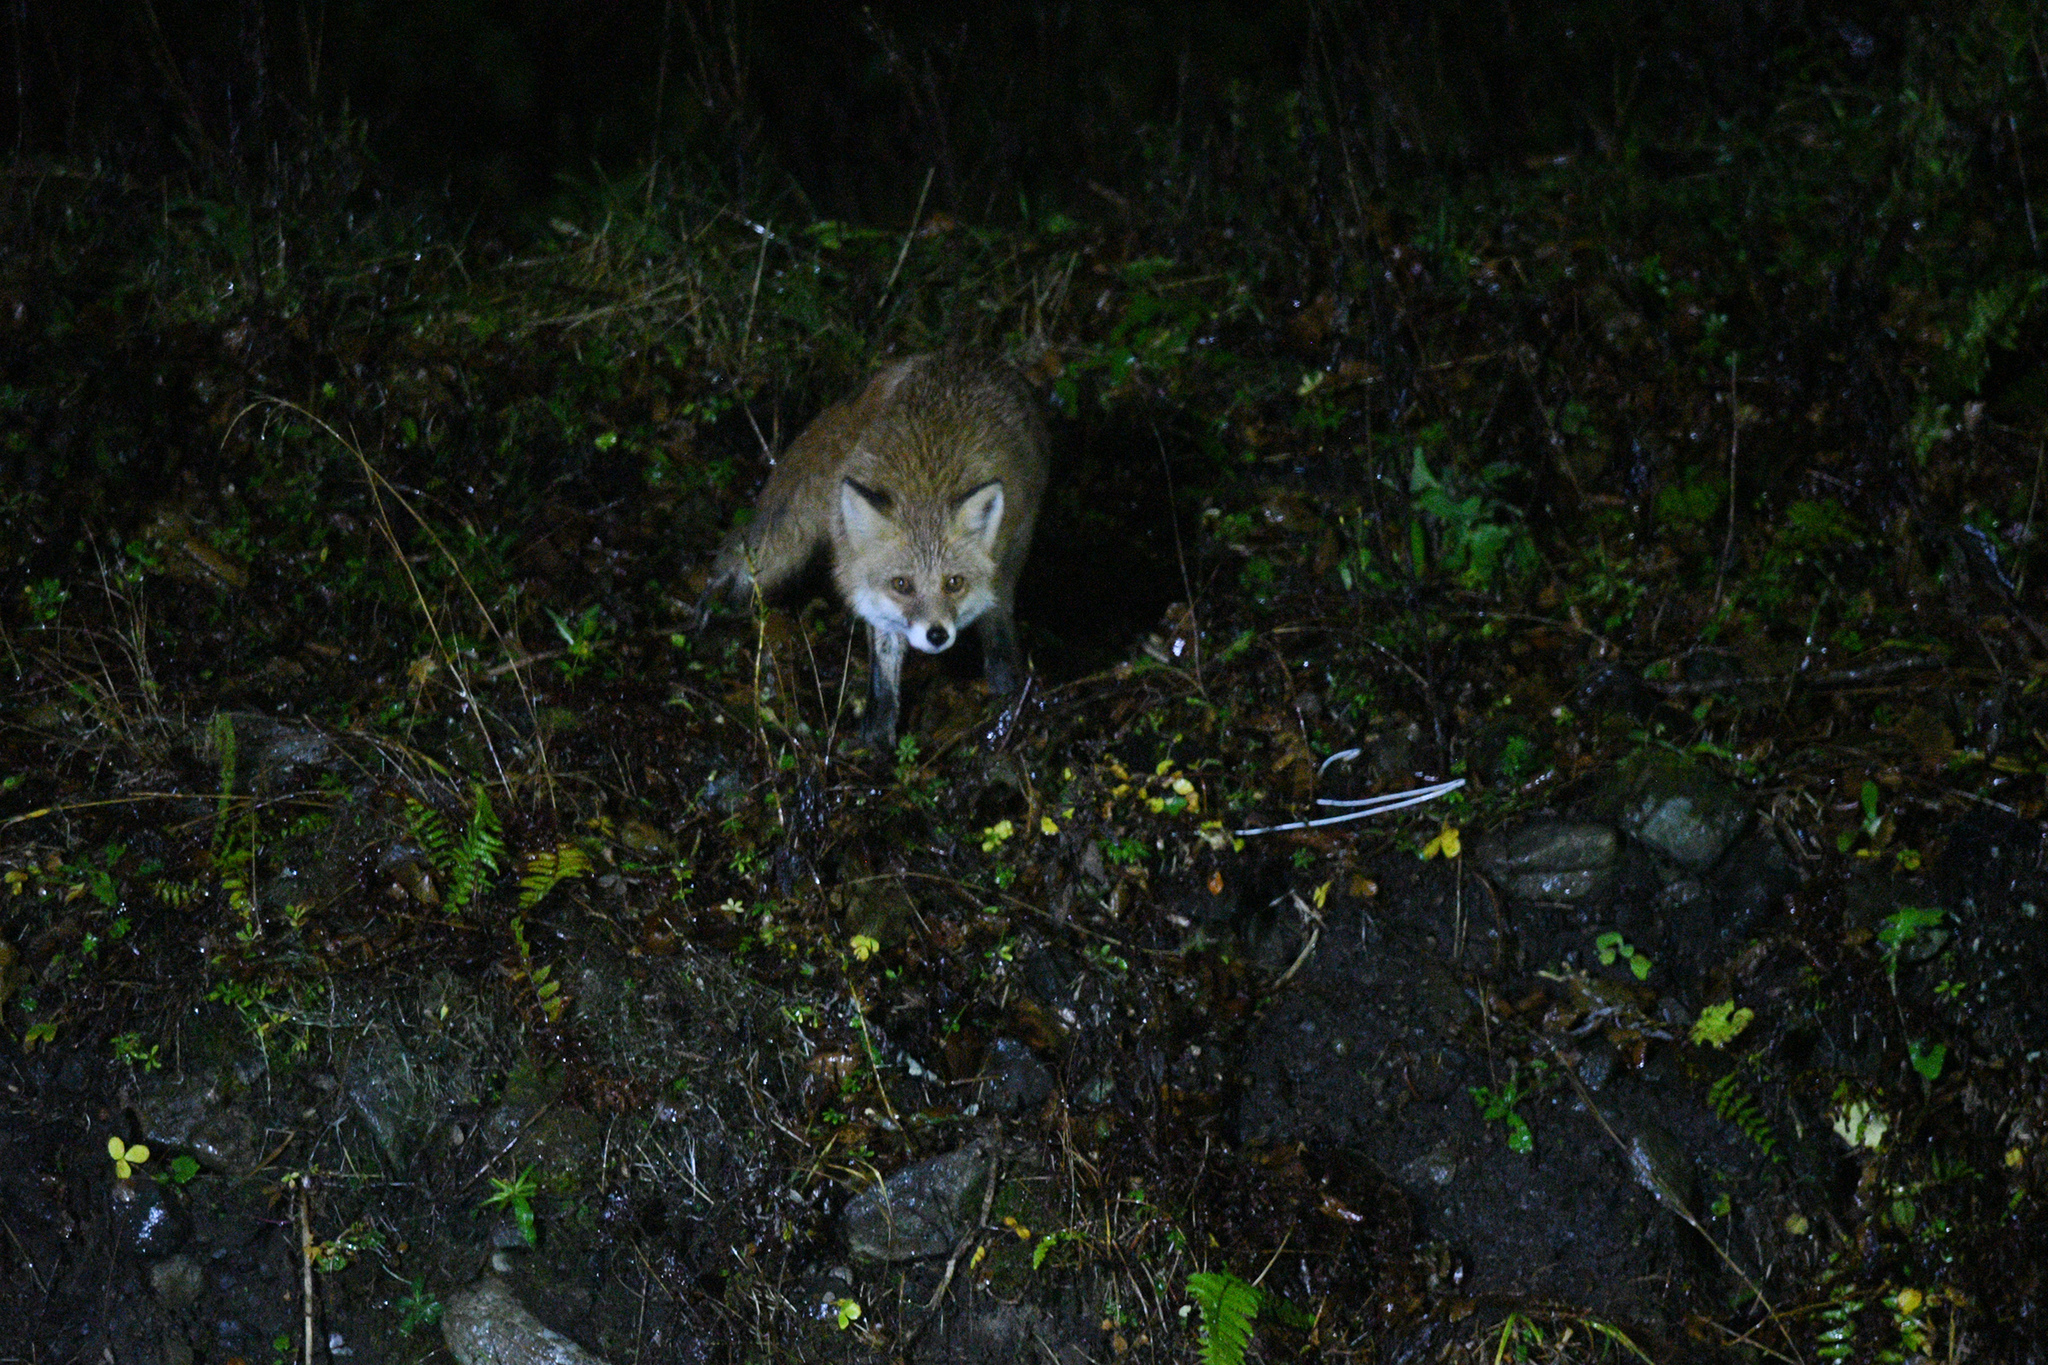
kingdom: Animalia
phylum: Chordata
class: Mammalia
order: Carnivora
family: Canidae
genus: Vulpes
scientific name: Vulpes vulpes
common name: Red fox
